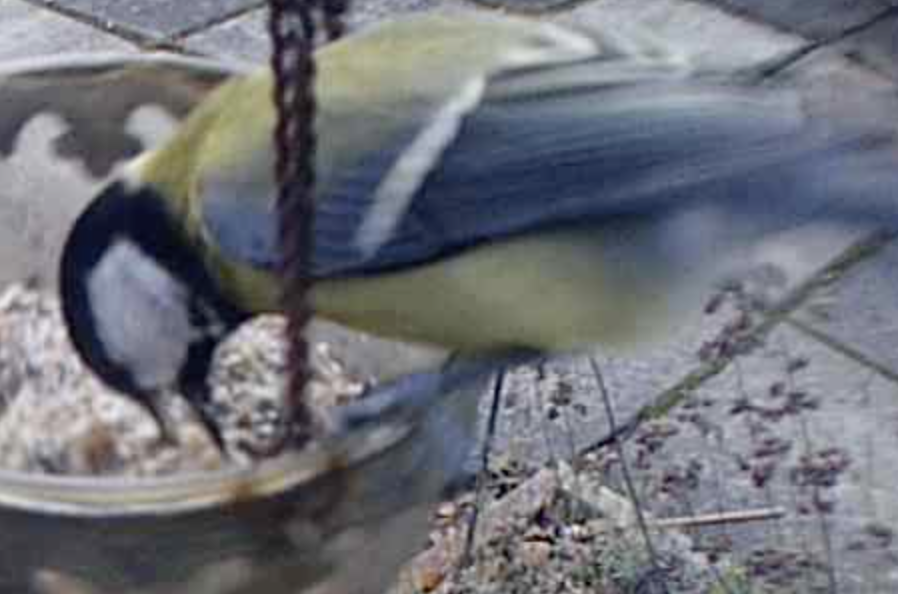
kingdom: Animalia
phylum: Chordata
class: Aves
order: Passeriformes
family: Paridae
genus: Parus
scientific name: Parus major
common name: Great tit
